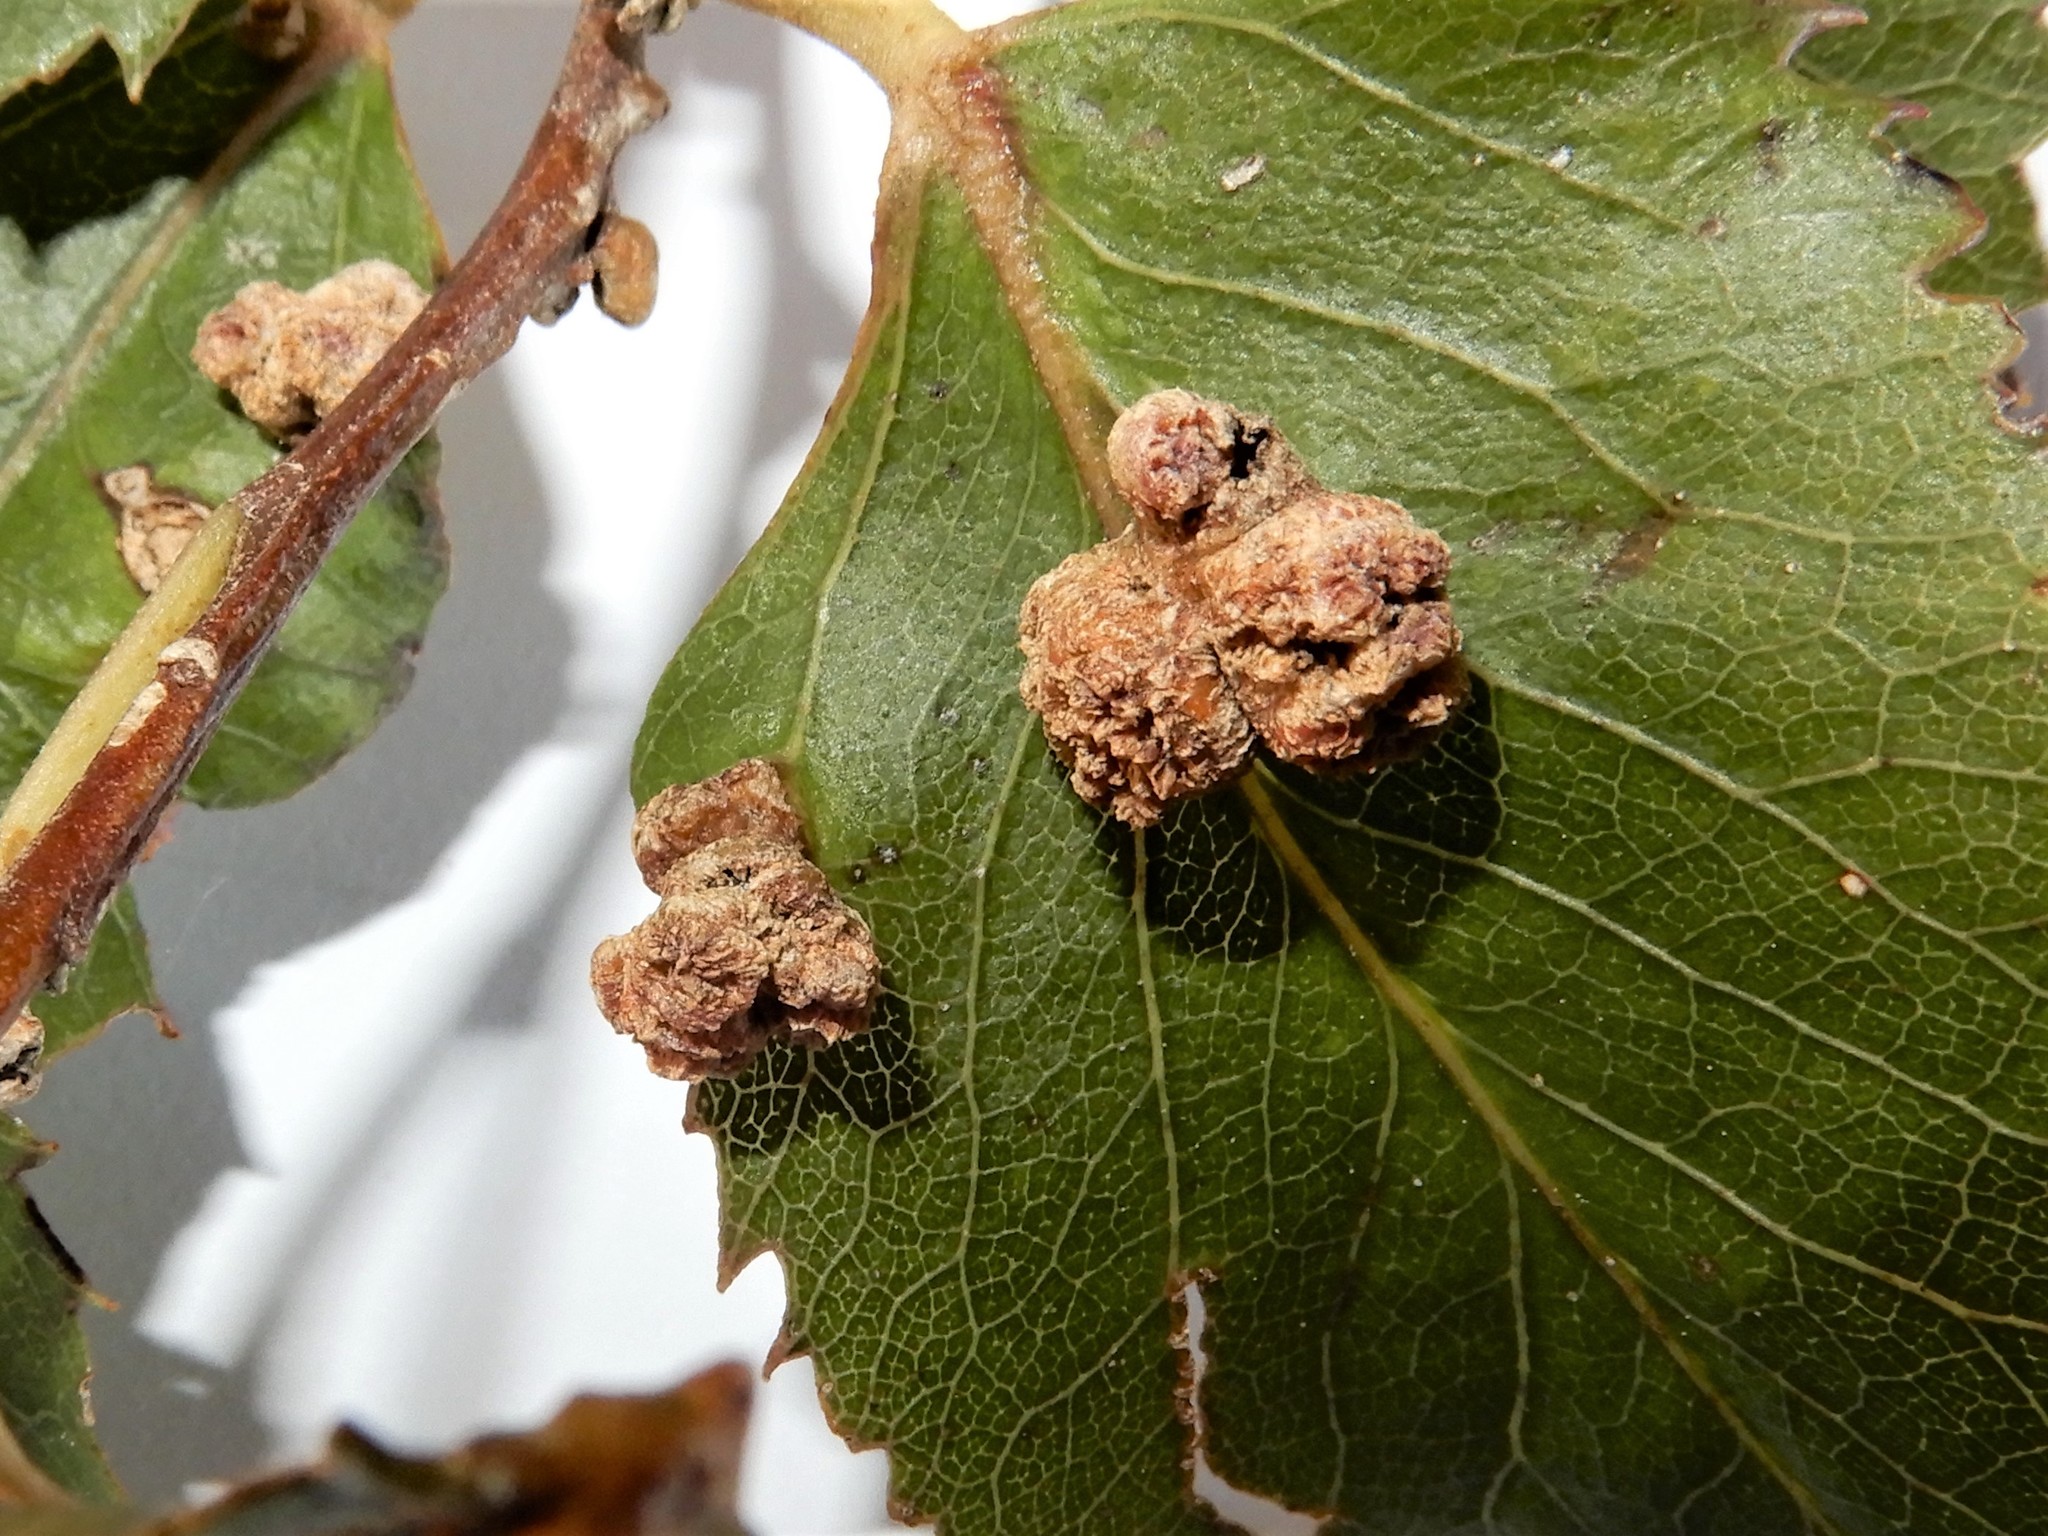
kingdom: Animalia
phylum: Arthropoda
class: Arachnida
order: Trombidiformes
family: Eriophyidae
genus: Eriophyes
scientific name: Eriophyes hoheriae
